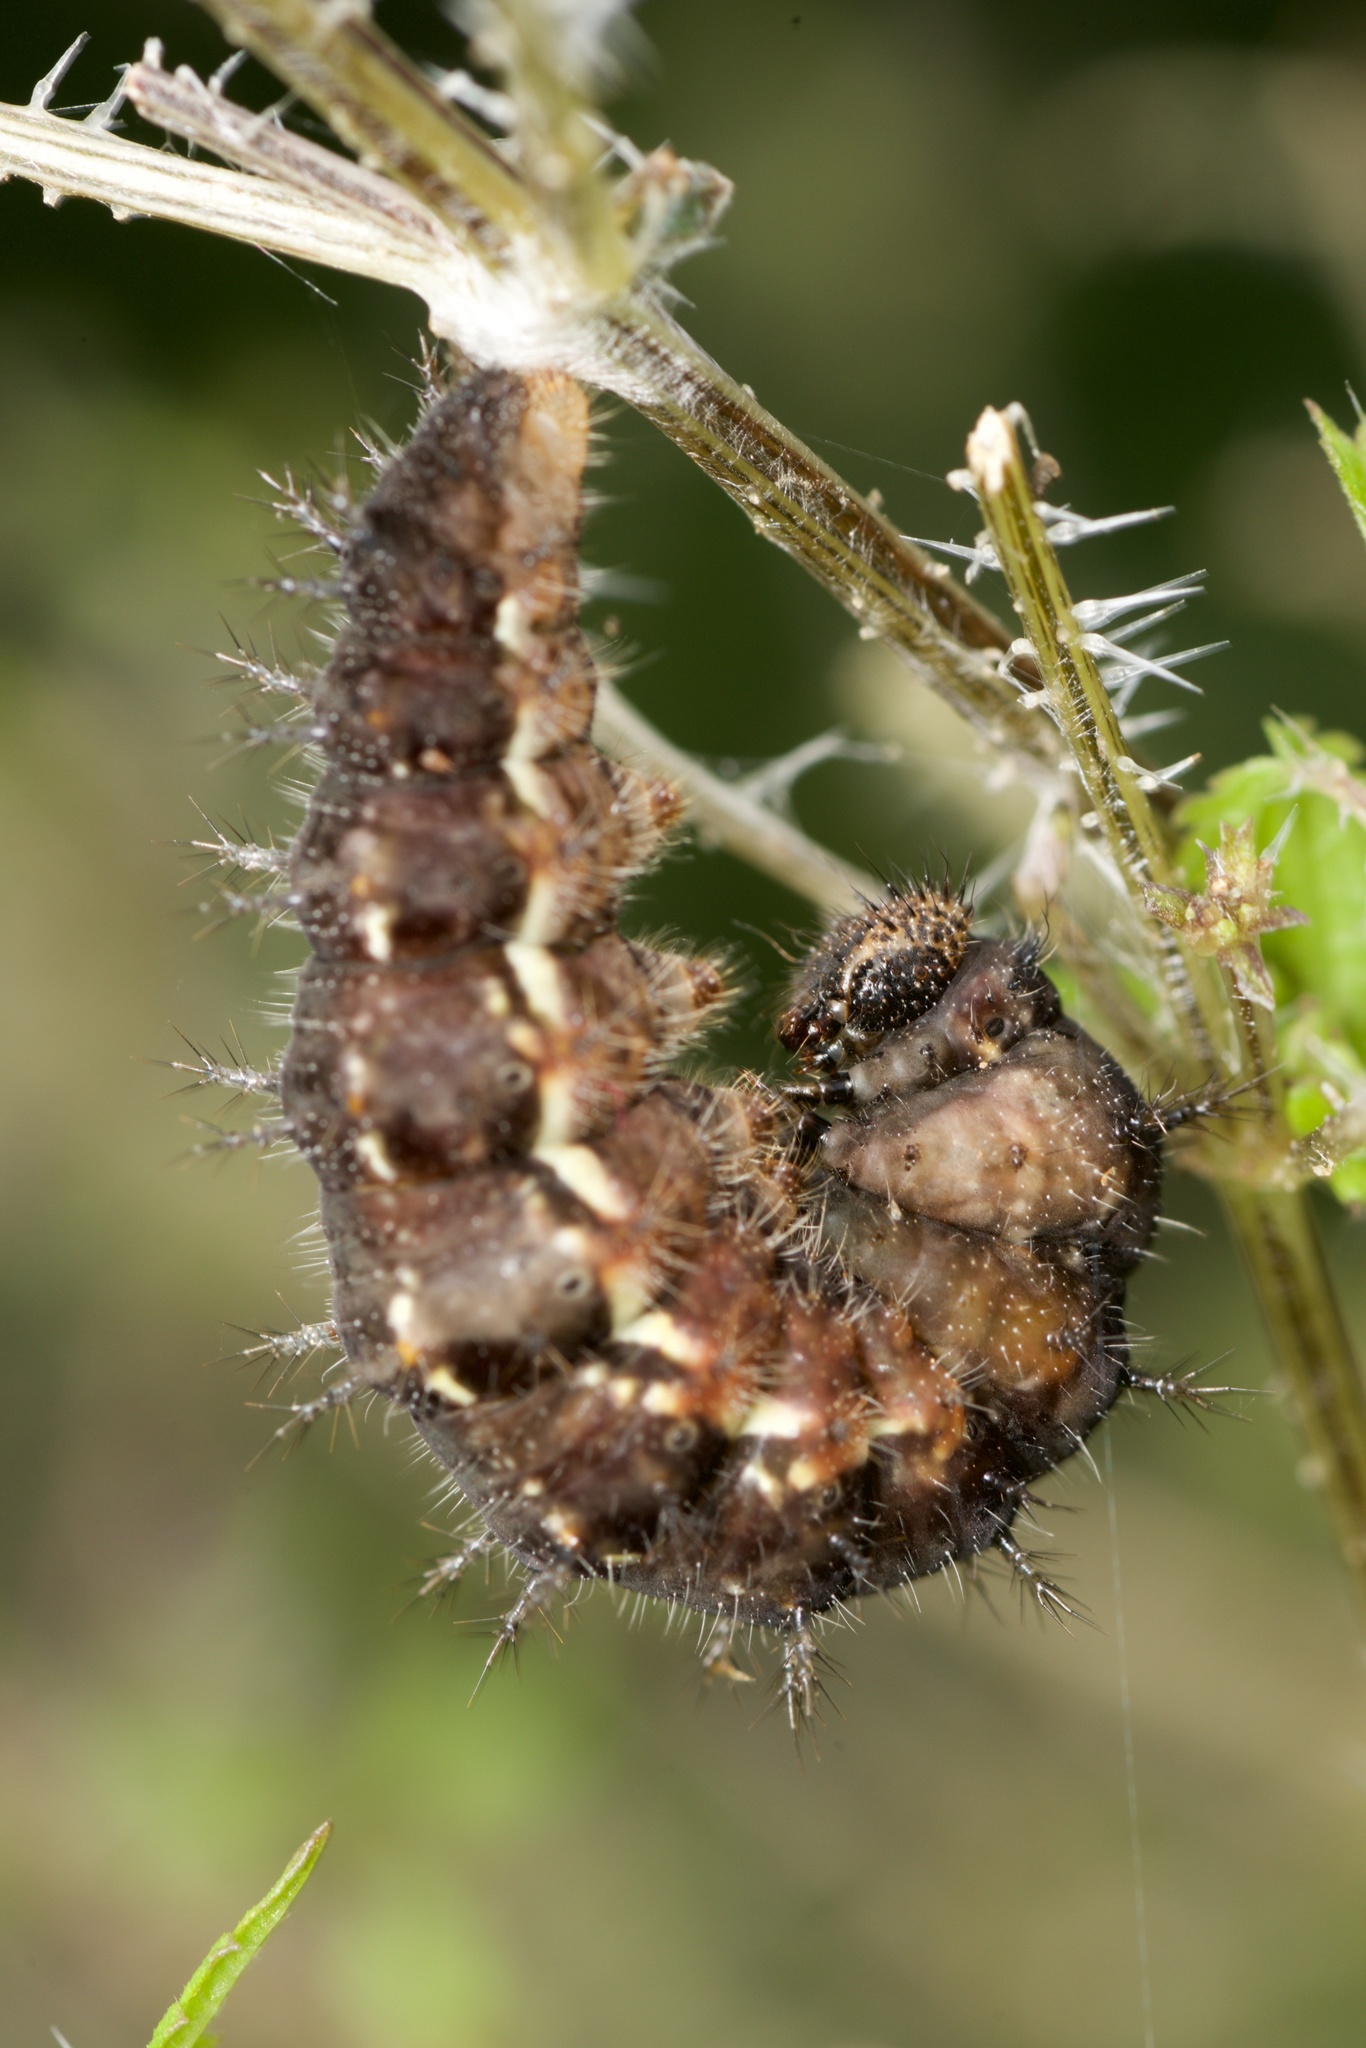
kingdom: Animalia
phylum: Arthropoda
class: Insecta
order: Lepidoptera
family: Nymphalidae
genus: Vanessa
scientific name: Vanessa itea
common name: Yellow admiral
